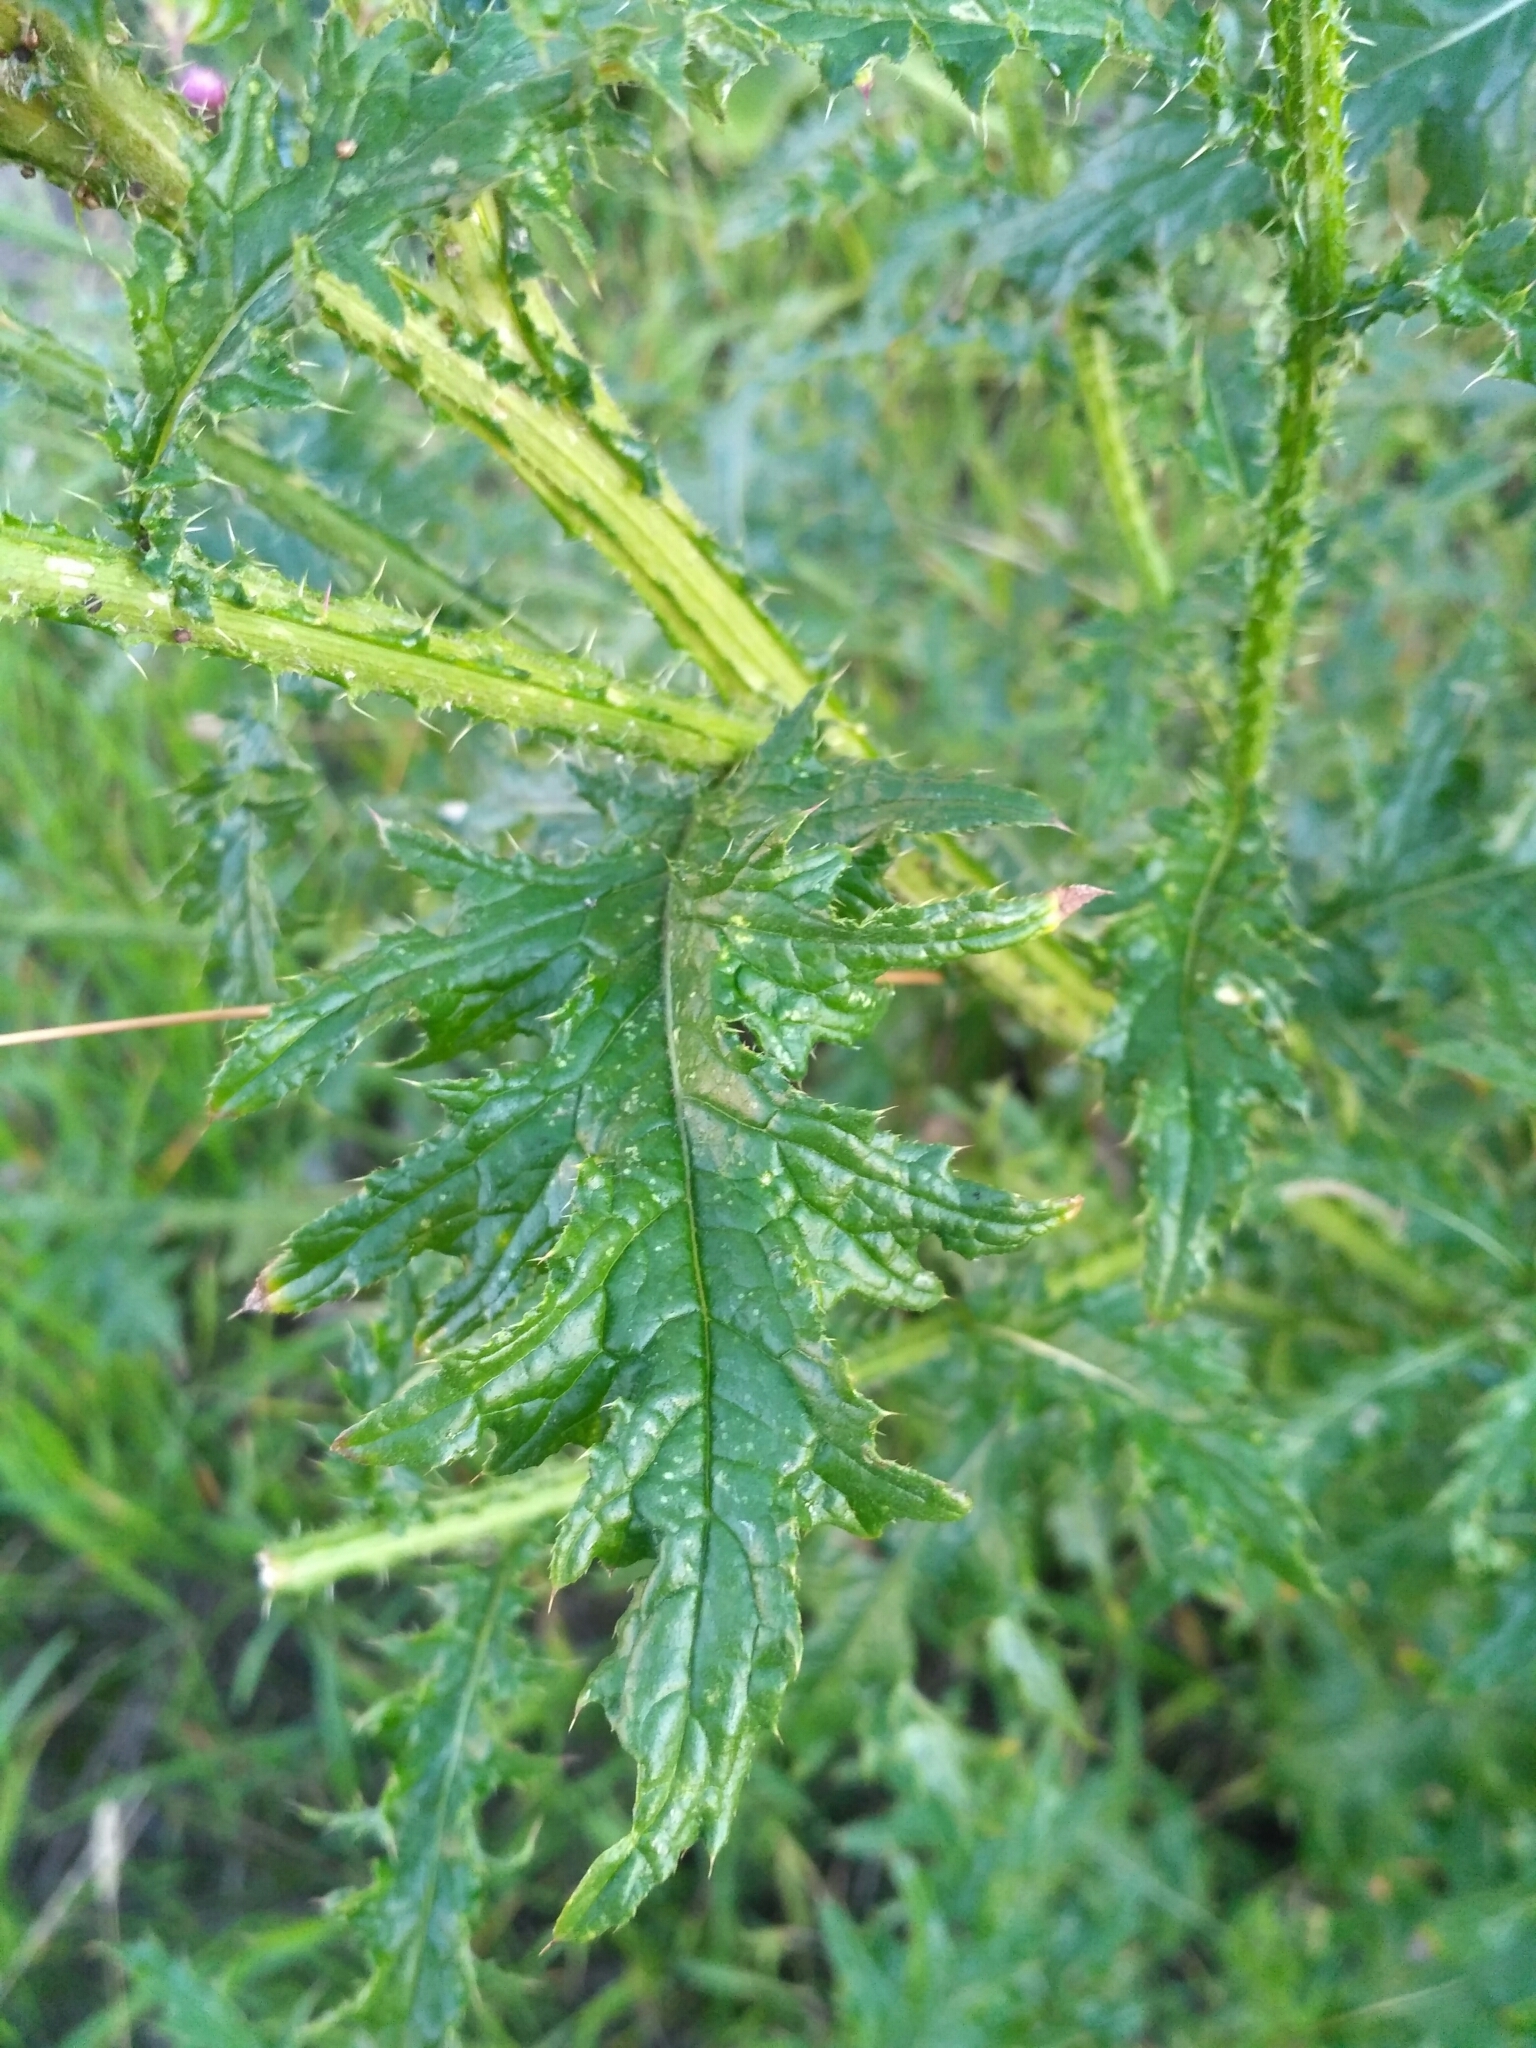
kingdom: Plantae
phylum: Tracheophyta
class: Magnoliopsida
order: Asterales
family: Asteraceae
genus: Carduus
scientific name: Carduus crispus
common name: Welted thistle
